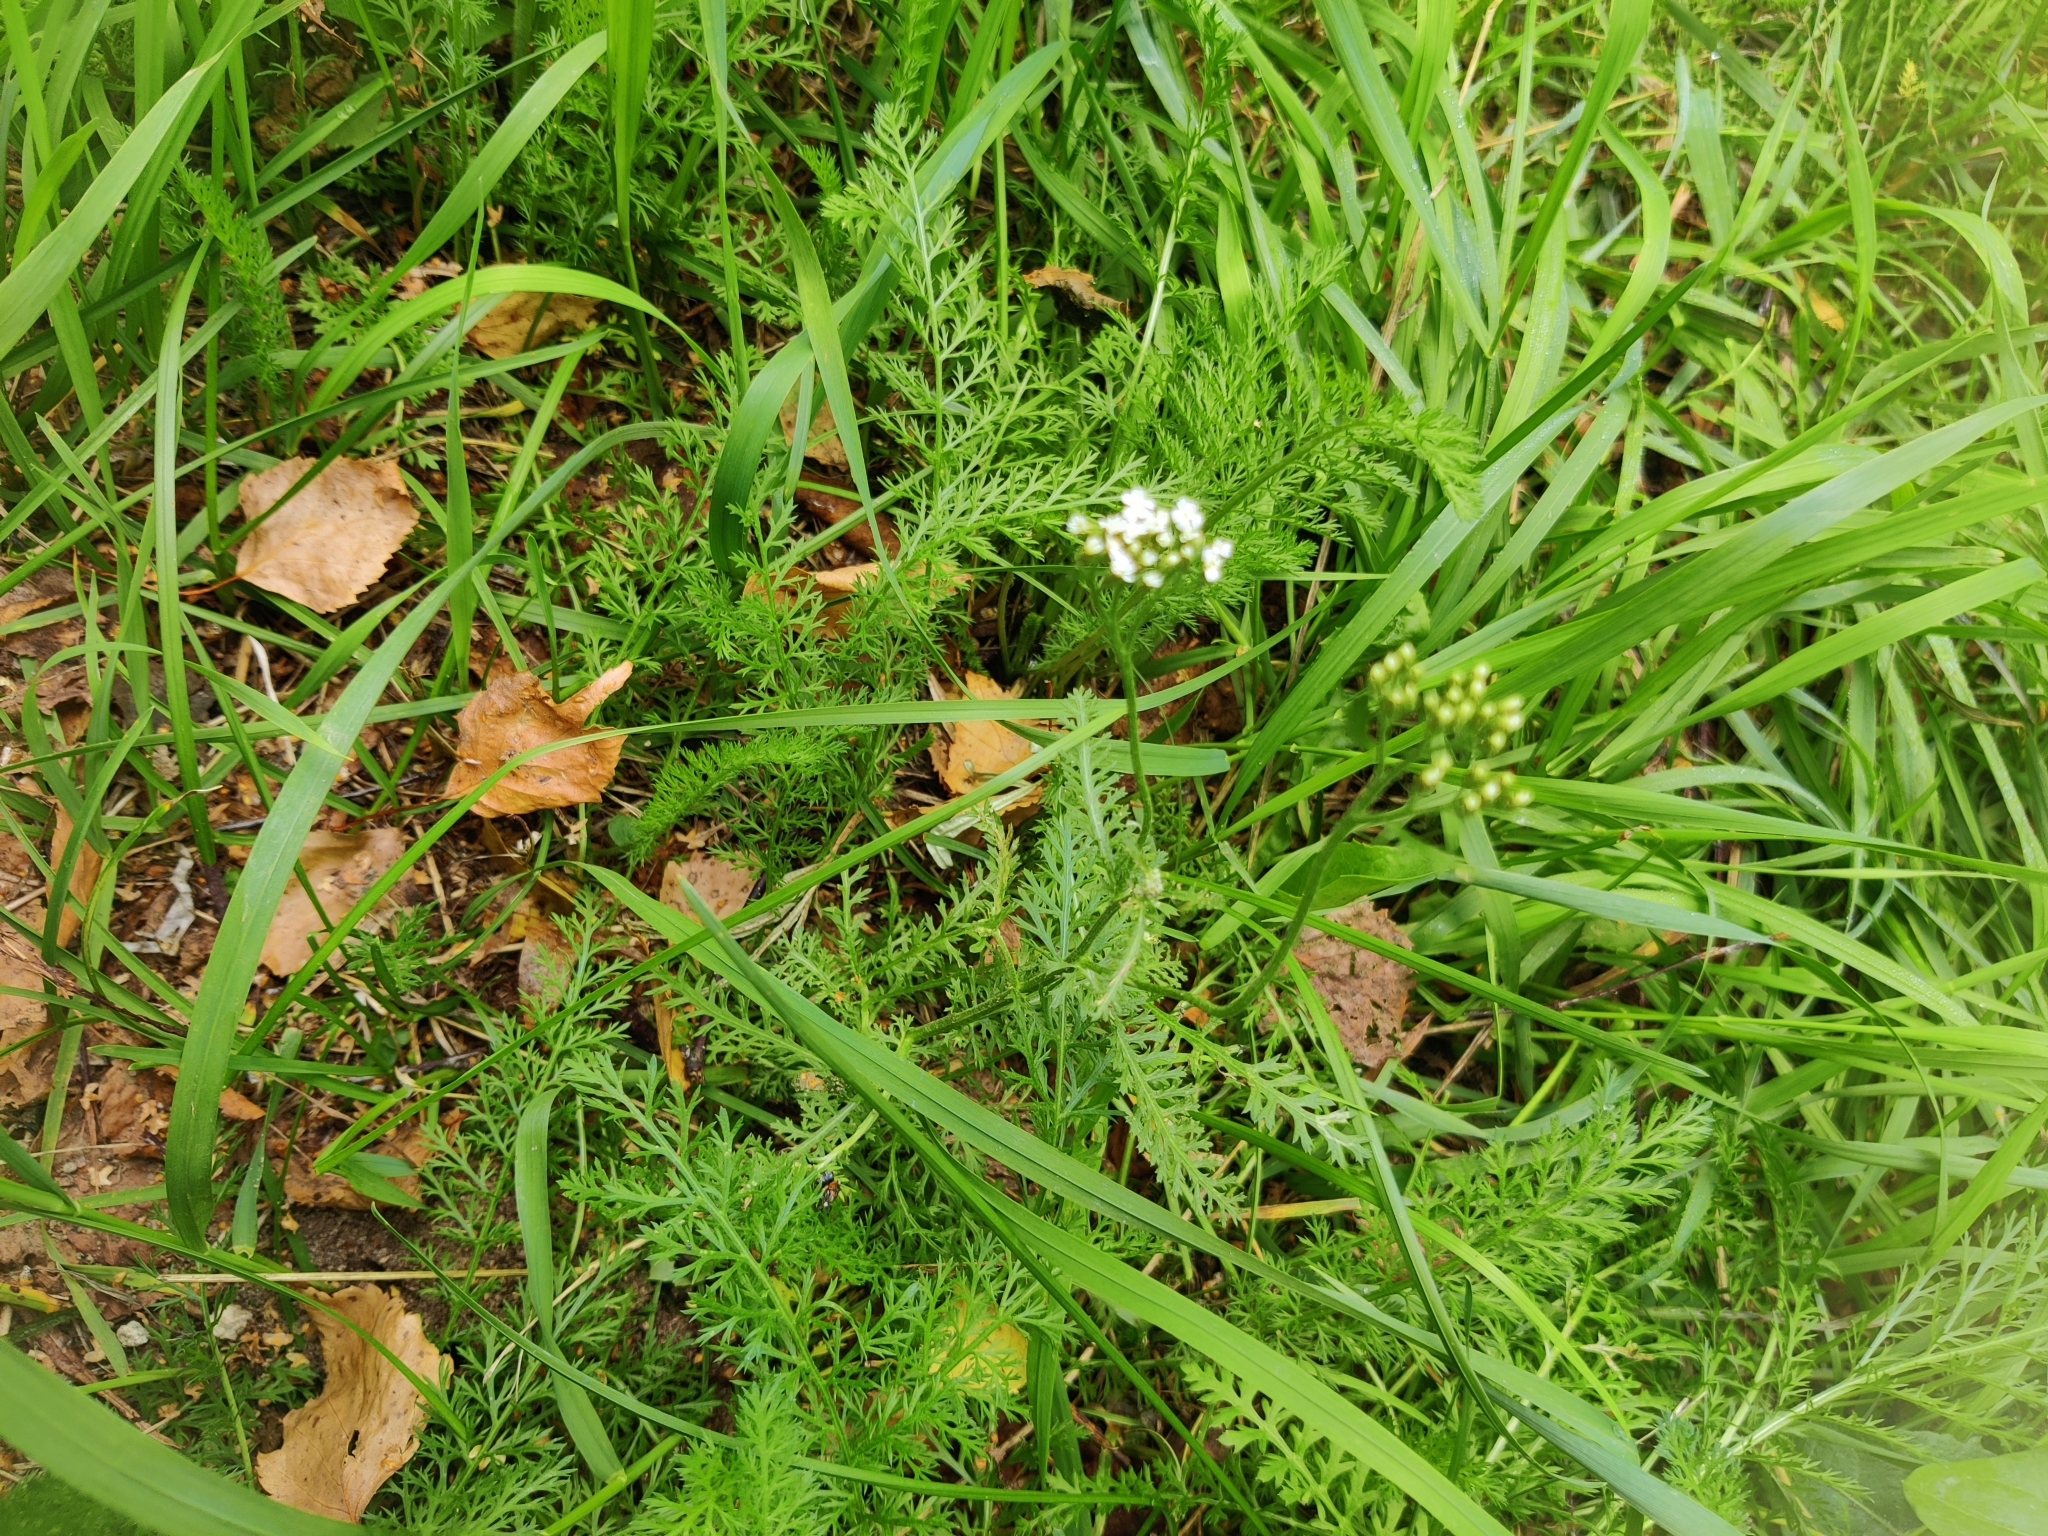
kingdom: Plantae
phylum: Tracheophyta
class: Magnoliopsida
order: Asterales
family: Asteraceae
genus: Achillea
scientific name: Achillea millefolium
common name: Yarrow
